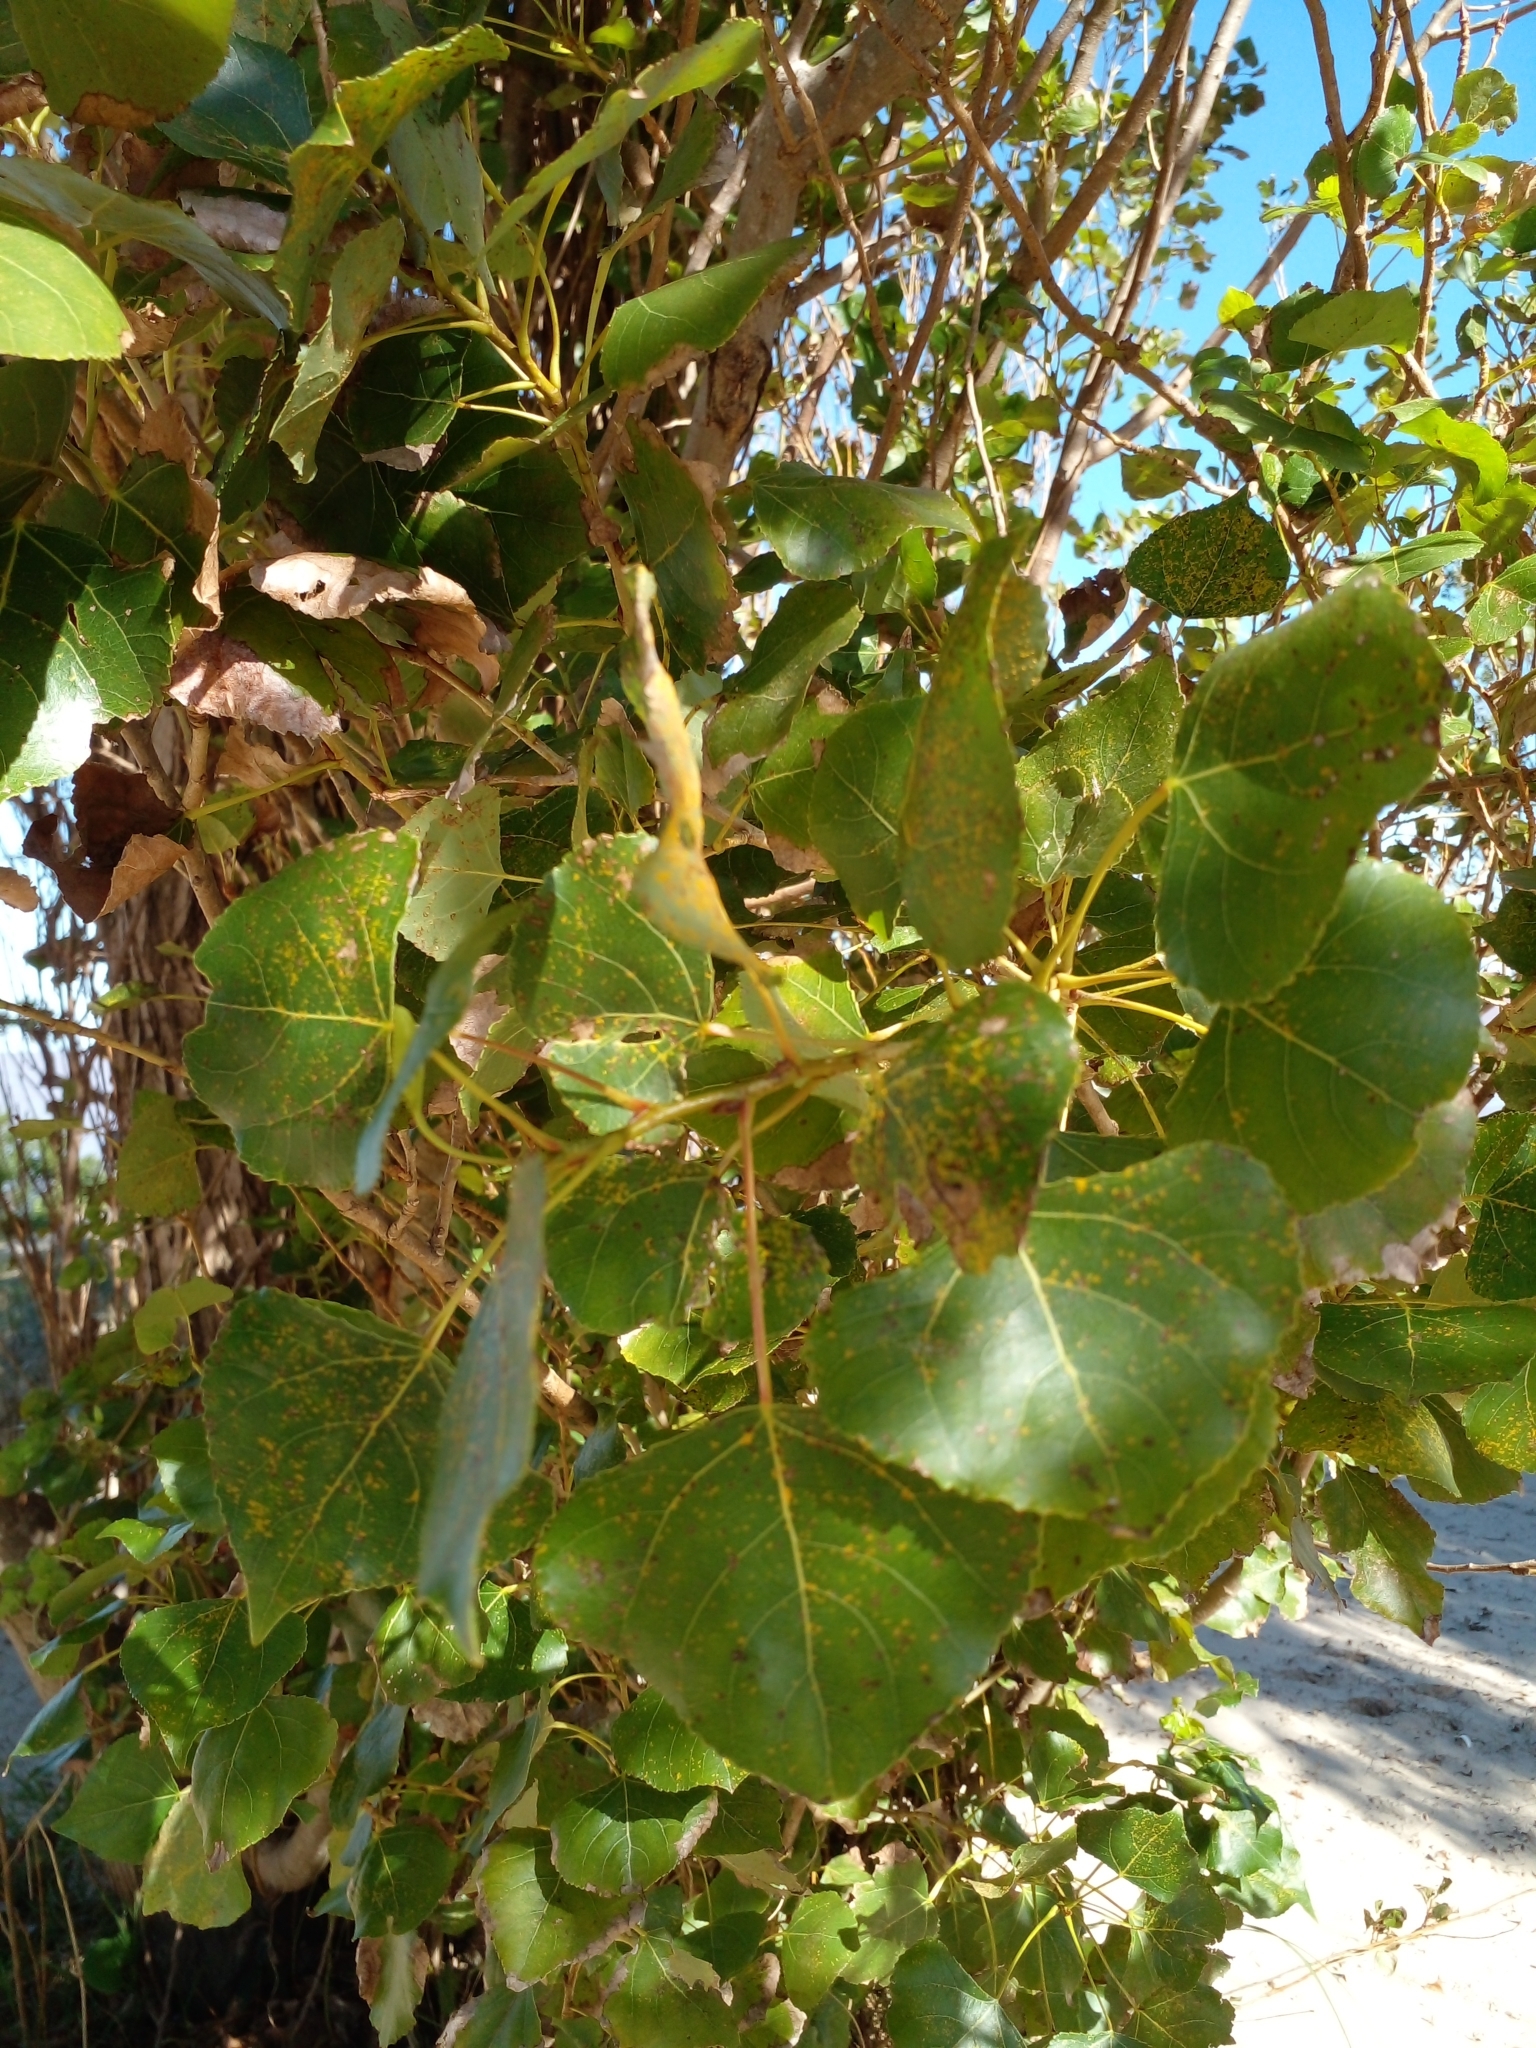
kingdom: Plantae
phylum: Tracheophyta
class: Magnoliopsida
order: Malpighiales
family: Salicaceae
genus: Populus
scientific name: Populus nigra
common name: Black poplar
